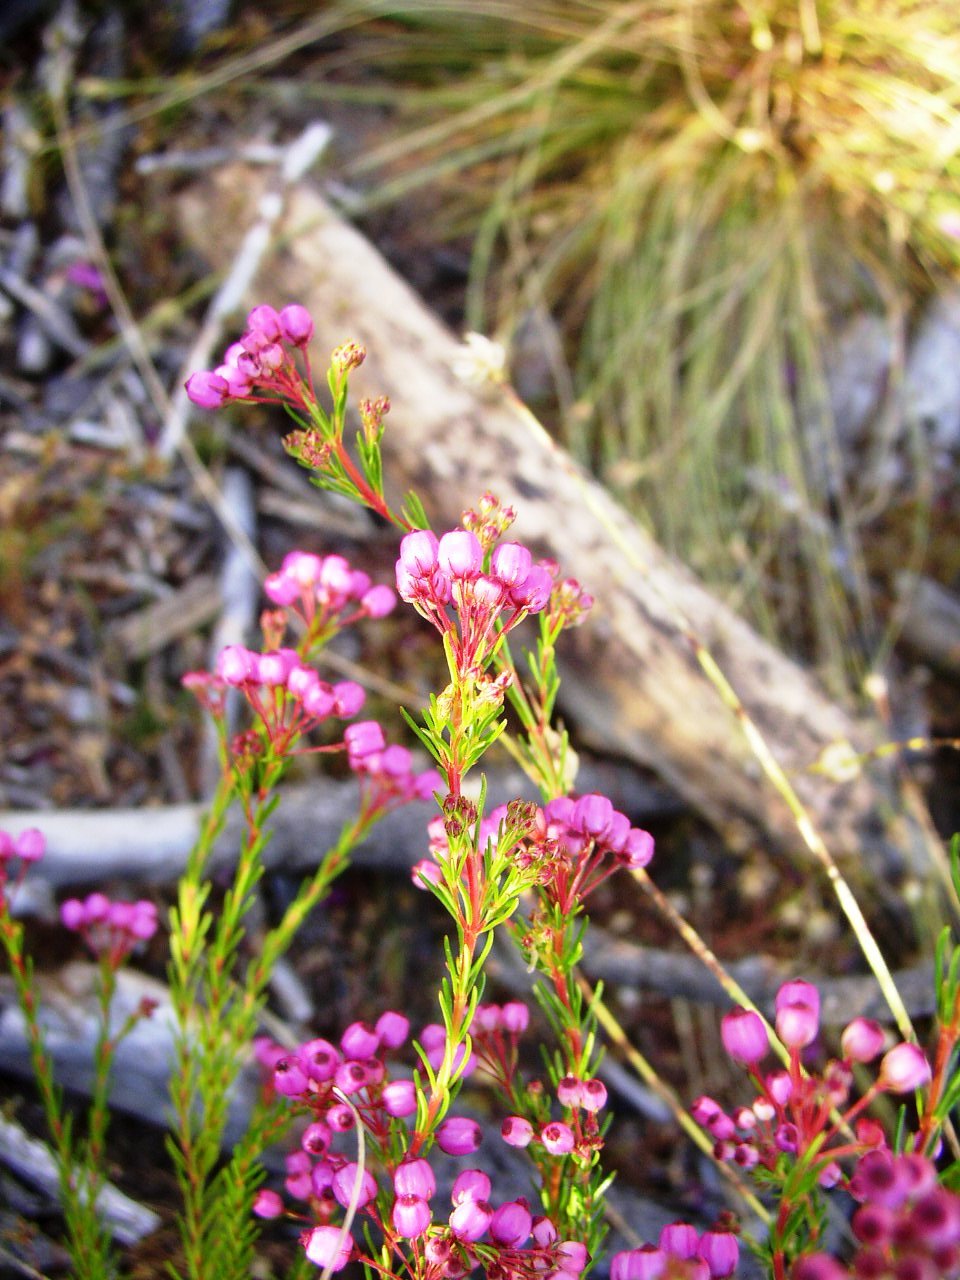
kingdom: Plantae
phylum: Tracheophyta
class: Magnoliopsida
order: Ericales
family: Ericaceae
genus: Erica
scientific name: Erica multumbellifera
